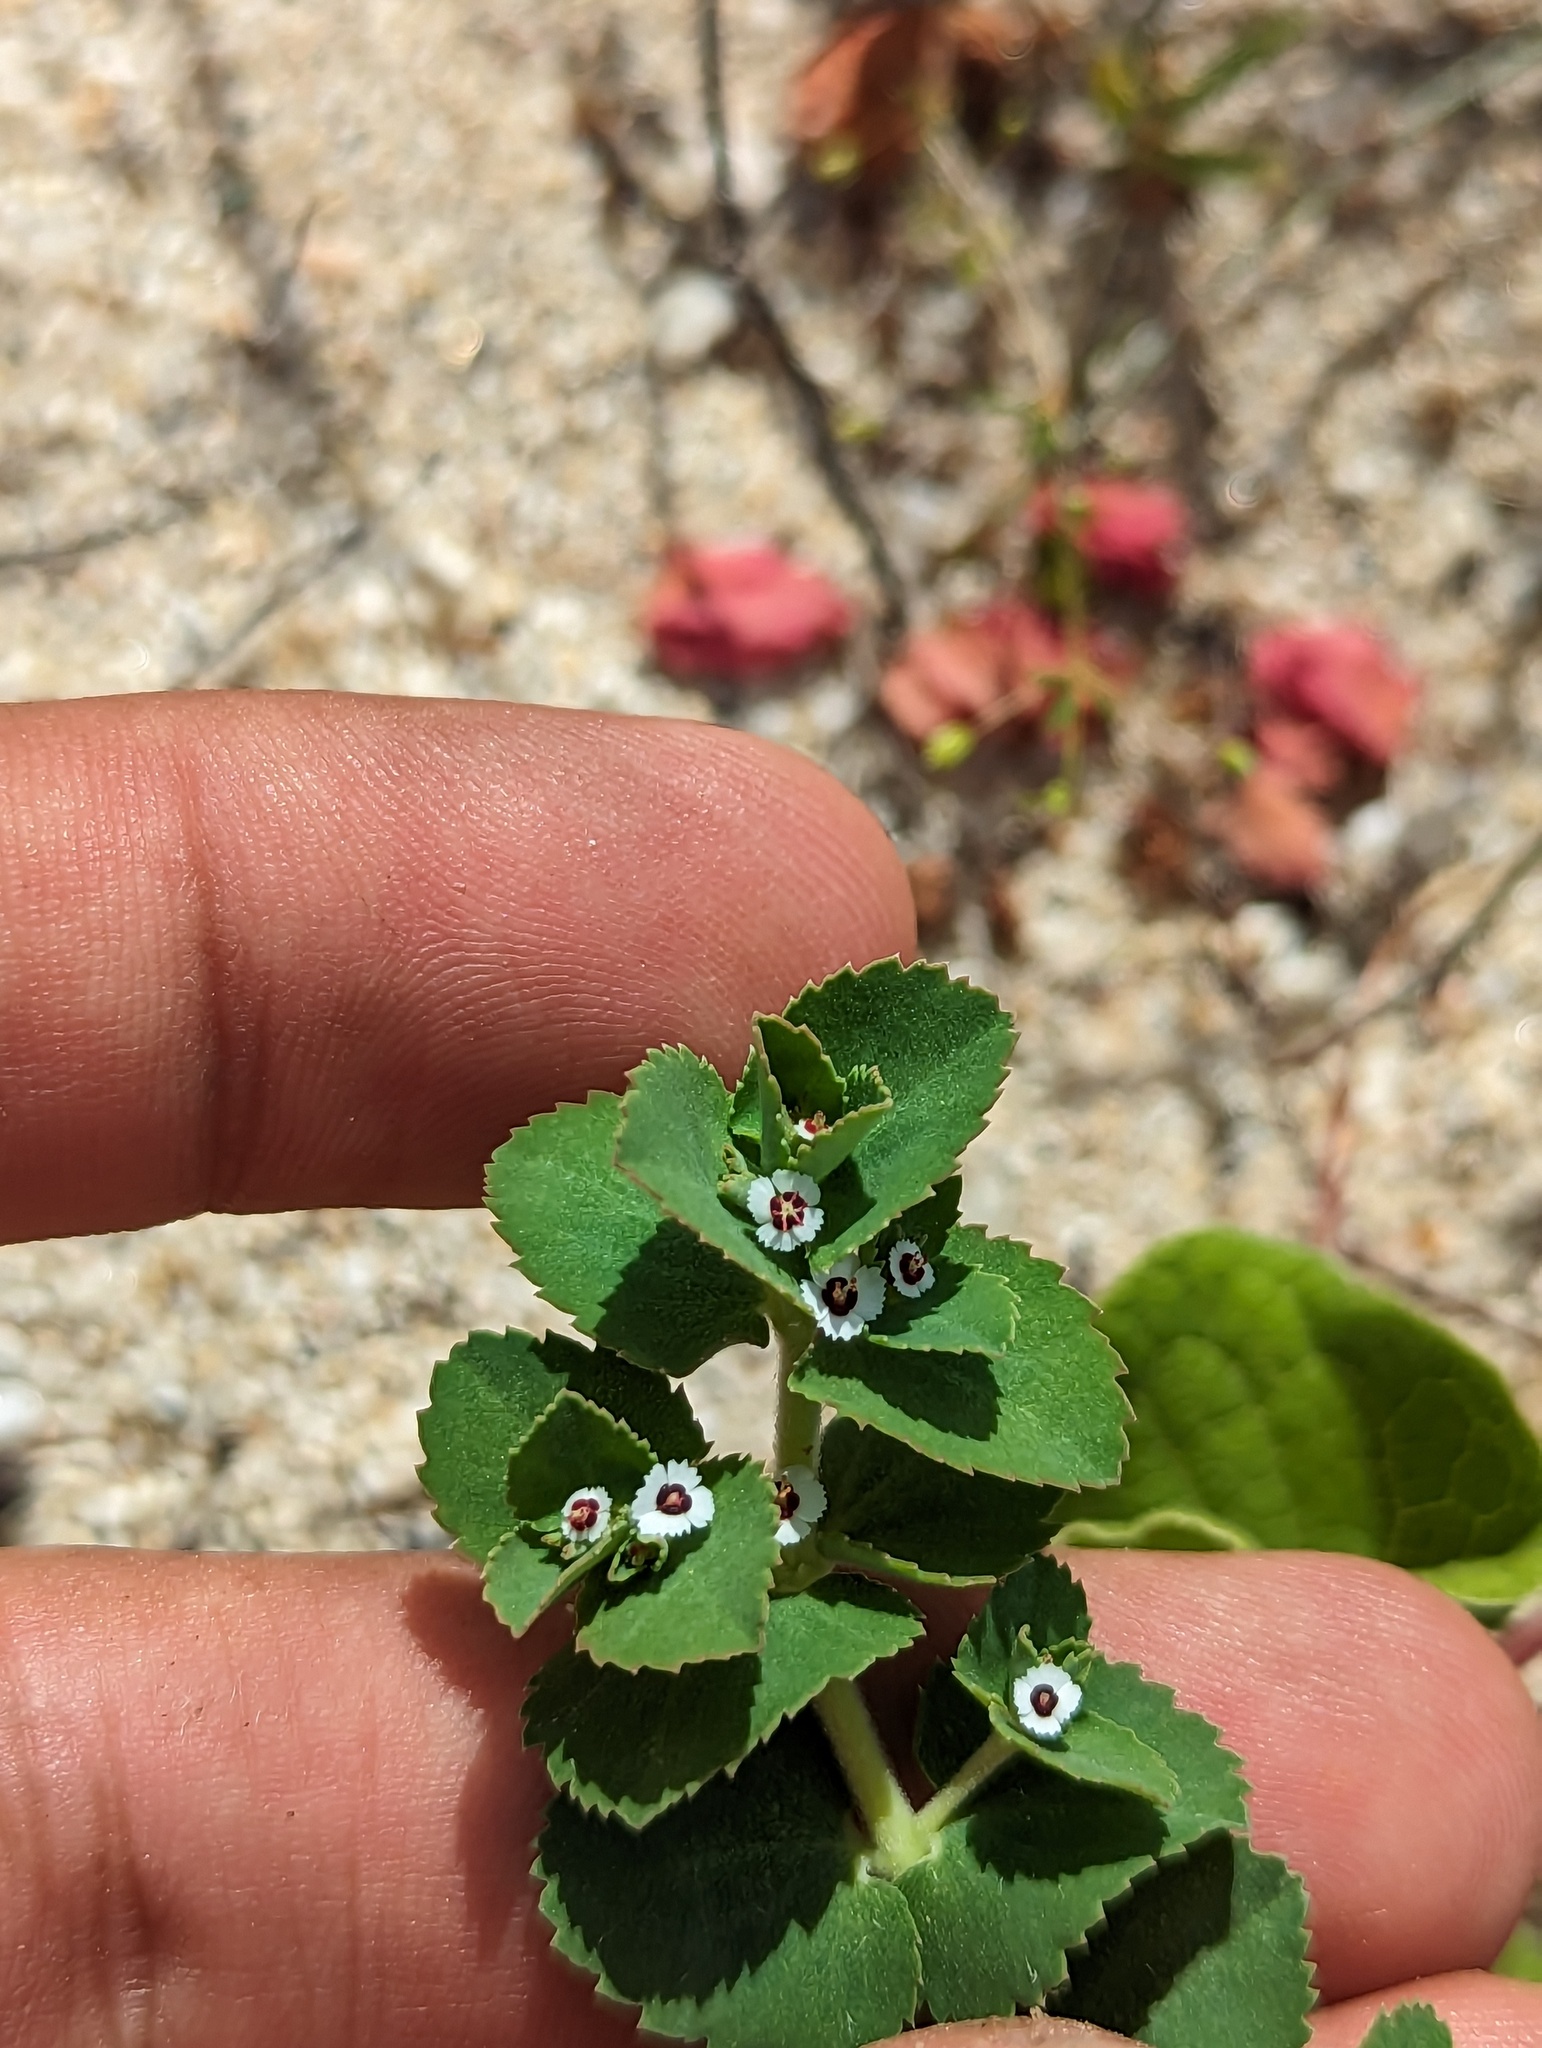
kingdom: Plantae
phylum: Tracheophyta
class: Magnoliopsida
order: Malpighiales
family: Euphorbiaceae
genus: Euphorbia
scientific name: Euphorbia leucophylla
